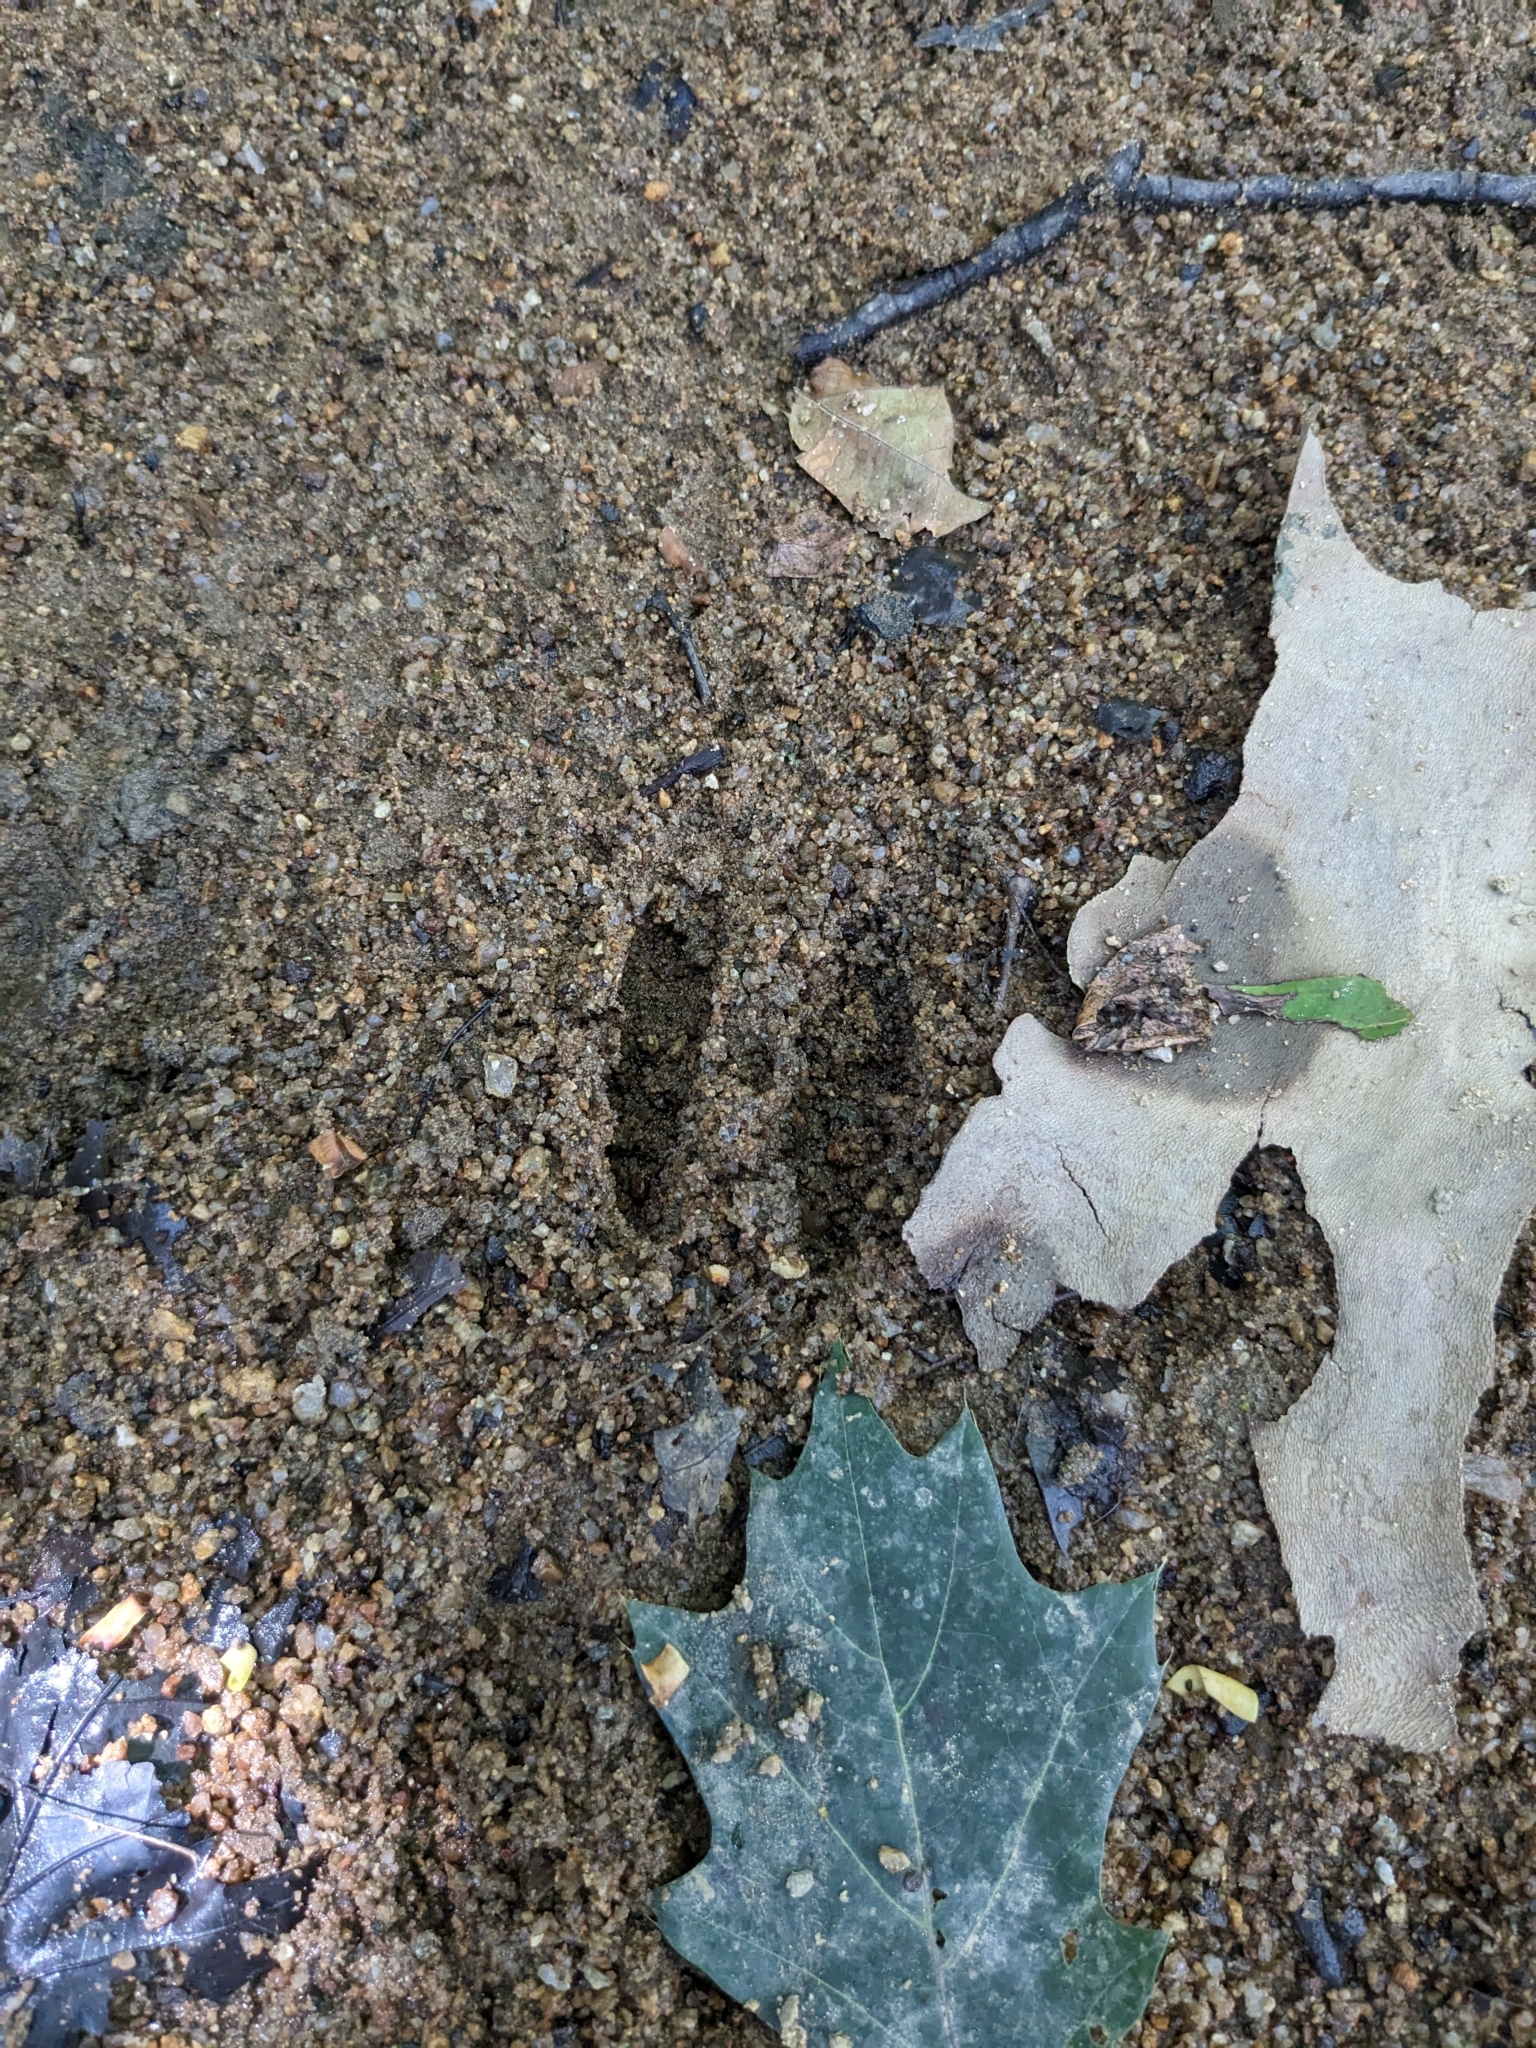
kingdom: Animalia
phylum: Chordata
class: Mammalia
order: Artiodactyla
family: Cervidae
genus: Odocoileus
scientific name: Odocoileus virginianus
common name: White-tailed deer
